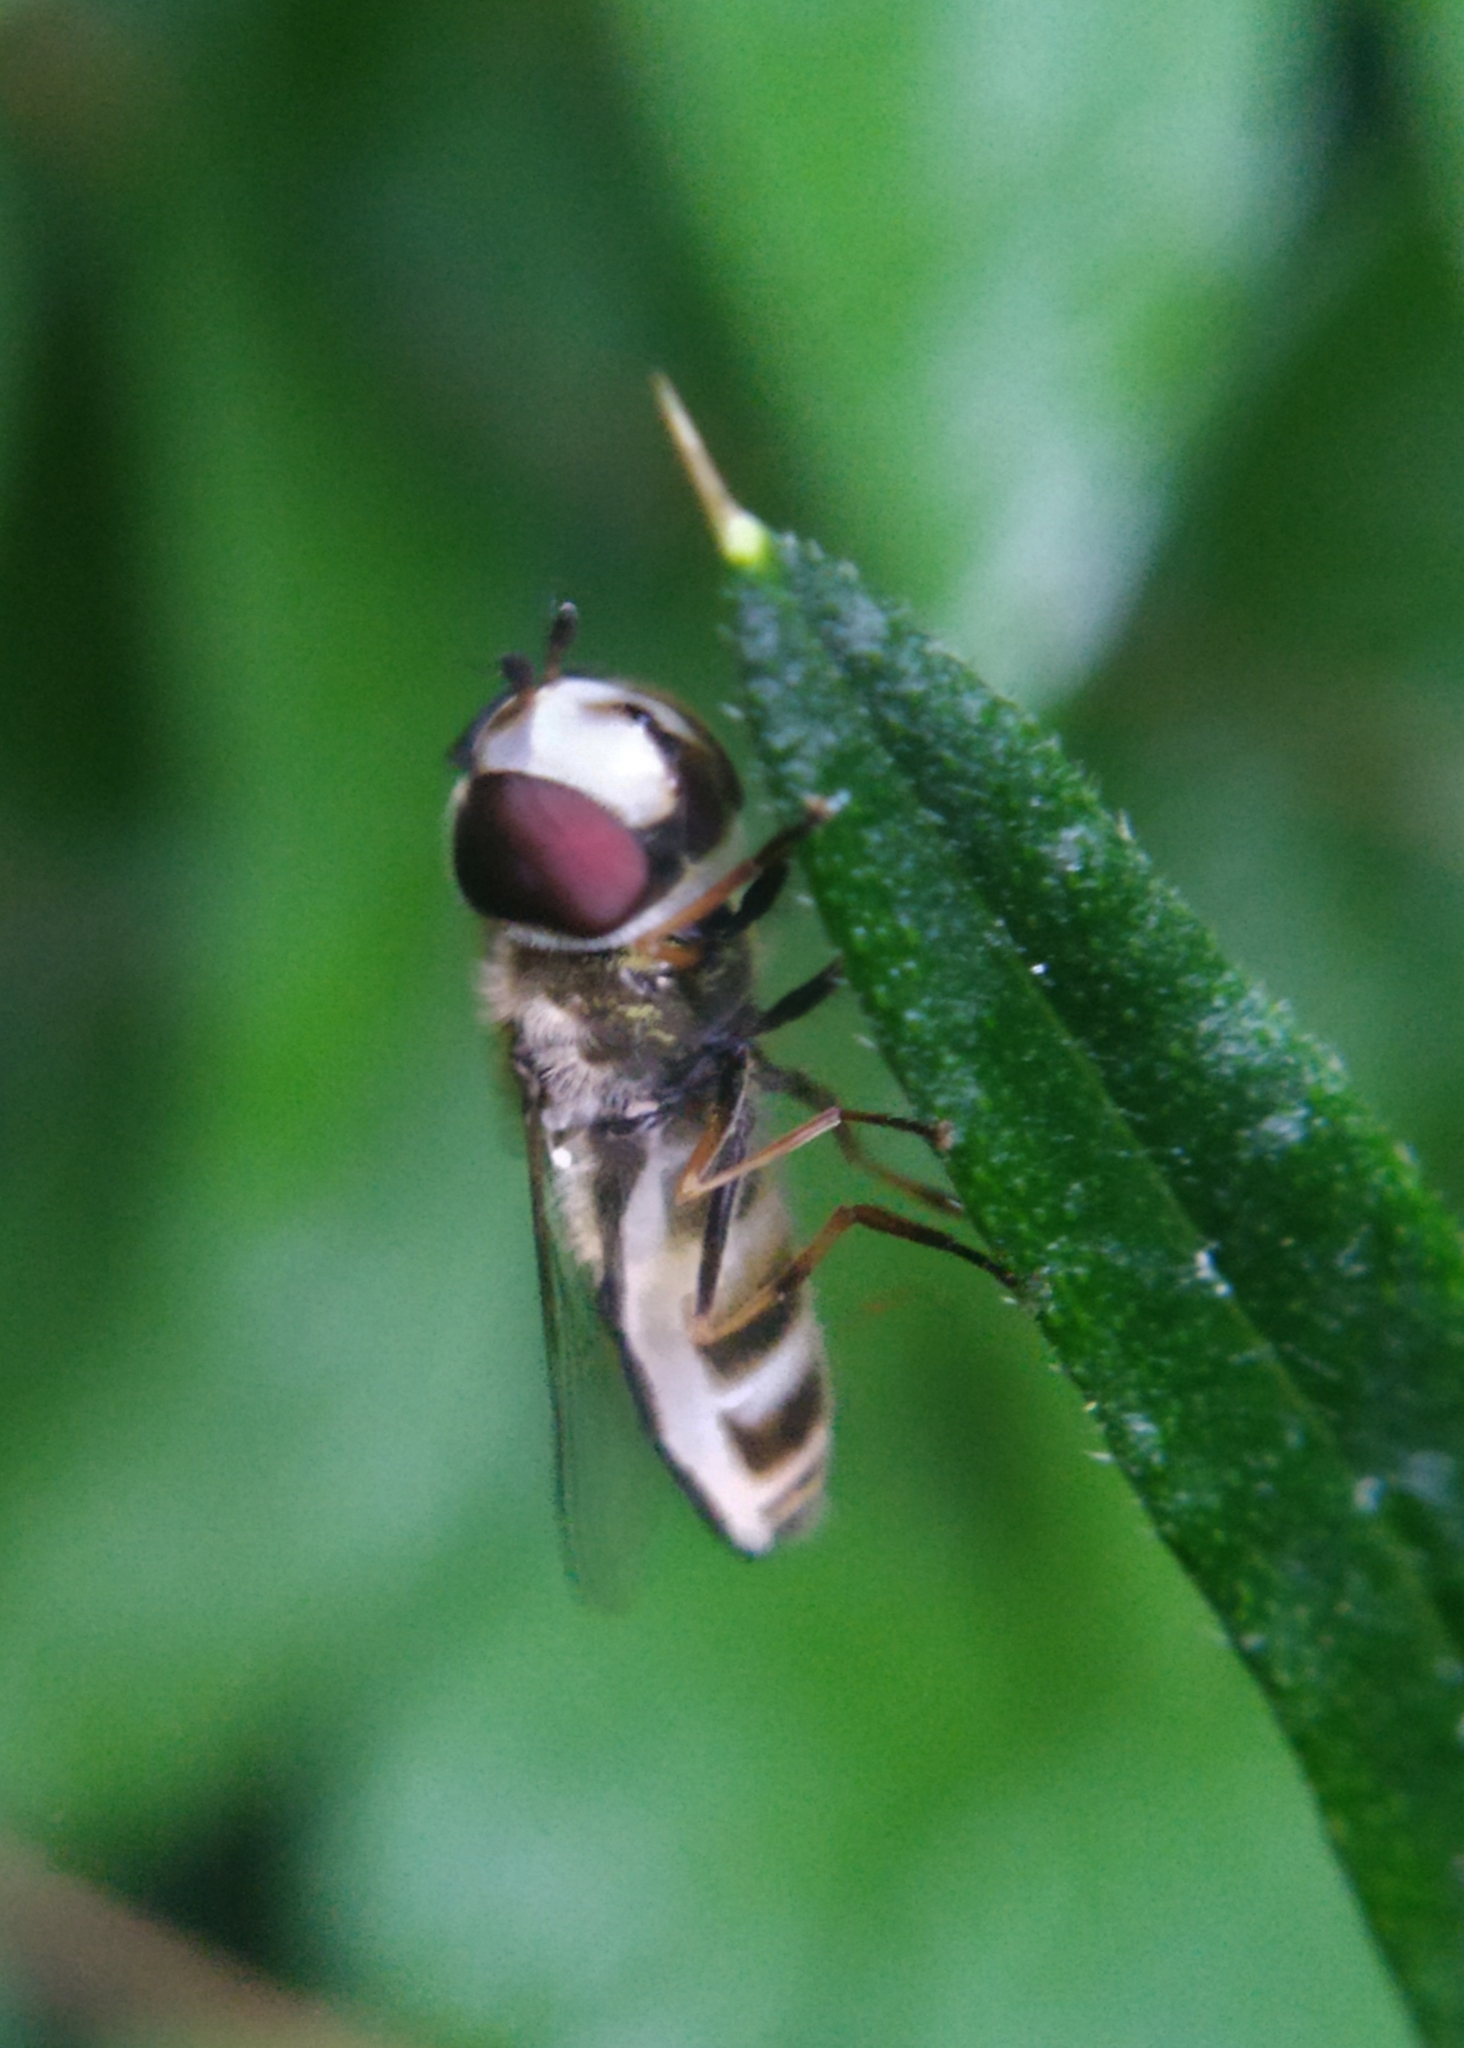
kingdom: Animalia
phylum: Arthropoda
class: Insecta
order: Diptera
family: Syrphidae
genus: Scaeva
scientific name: Scaeva pyrastri
